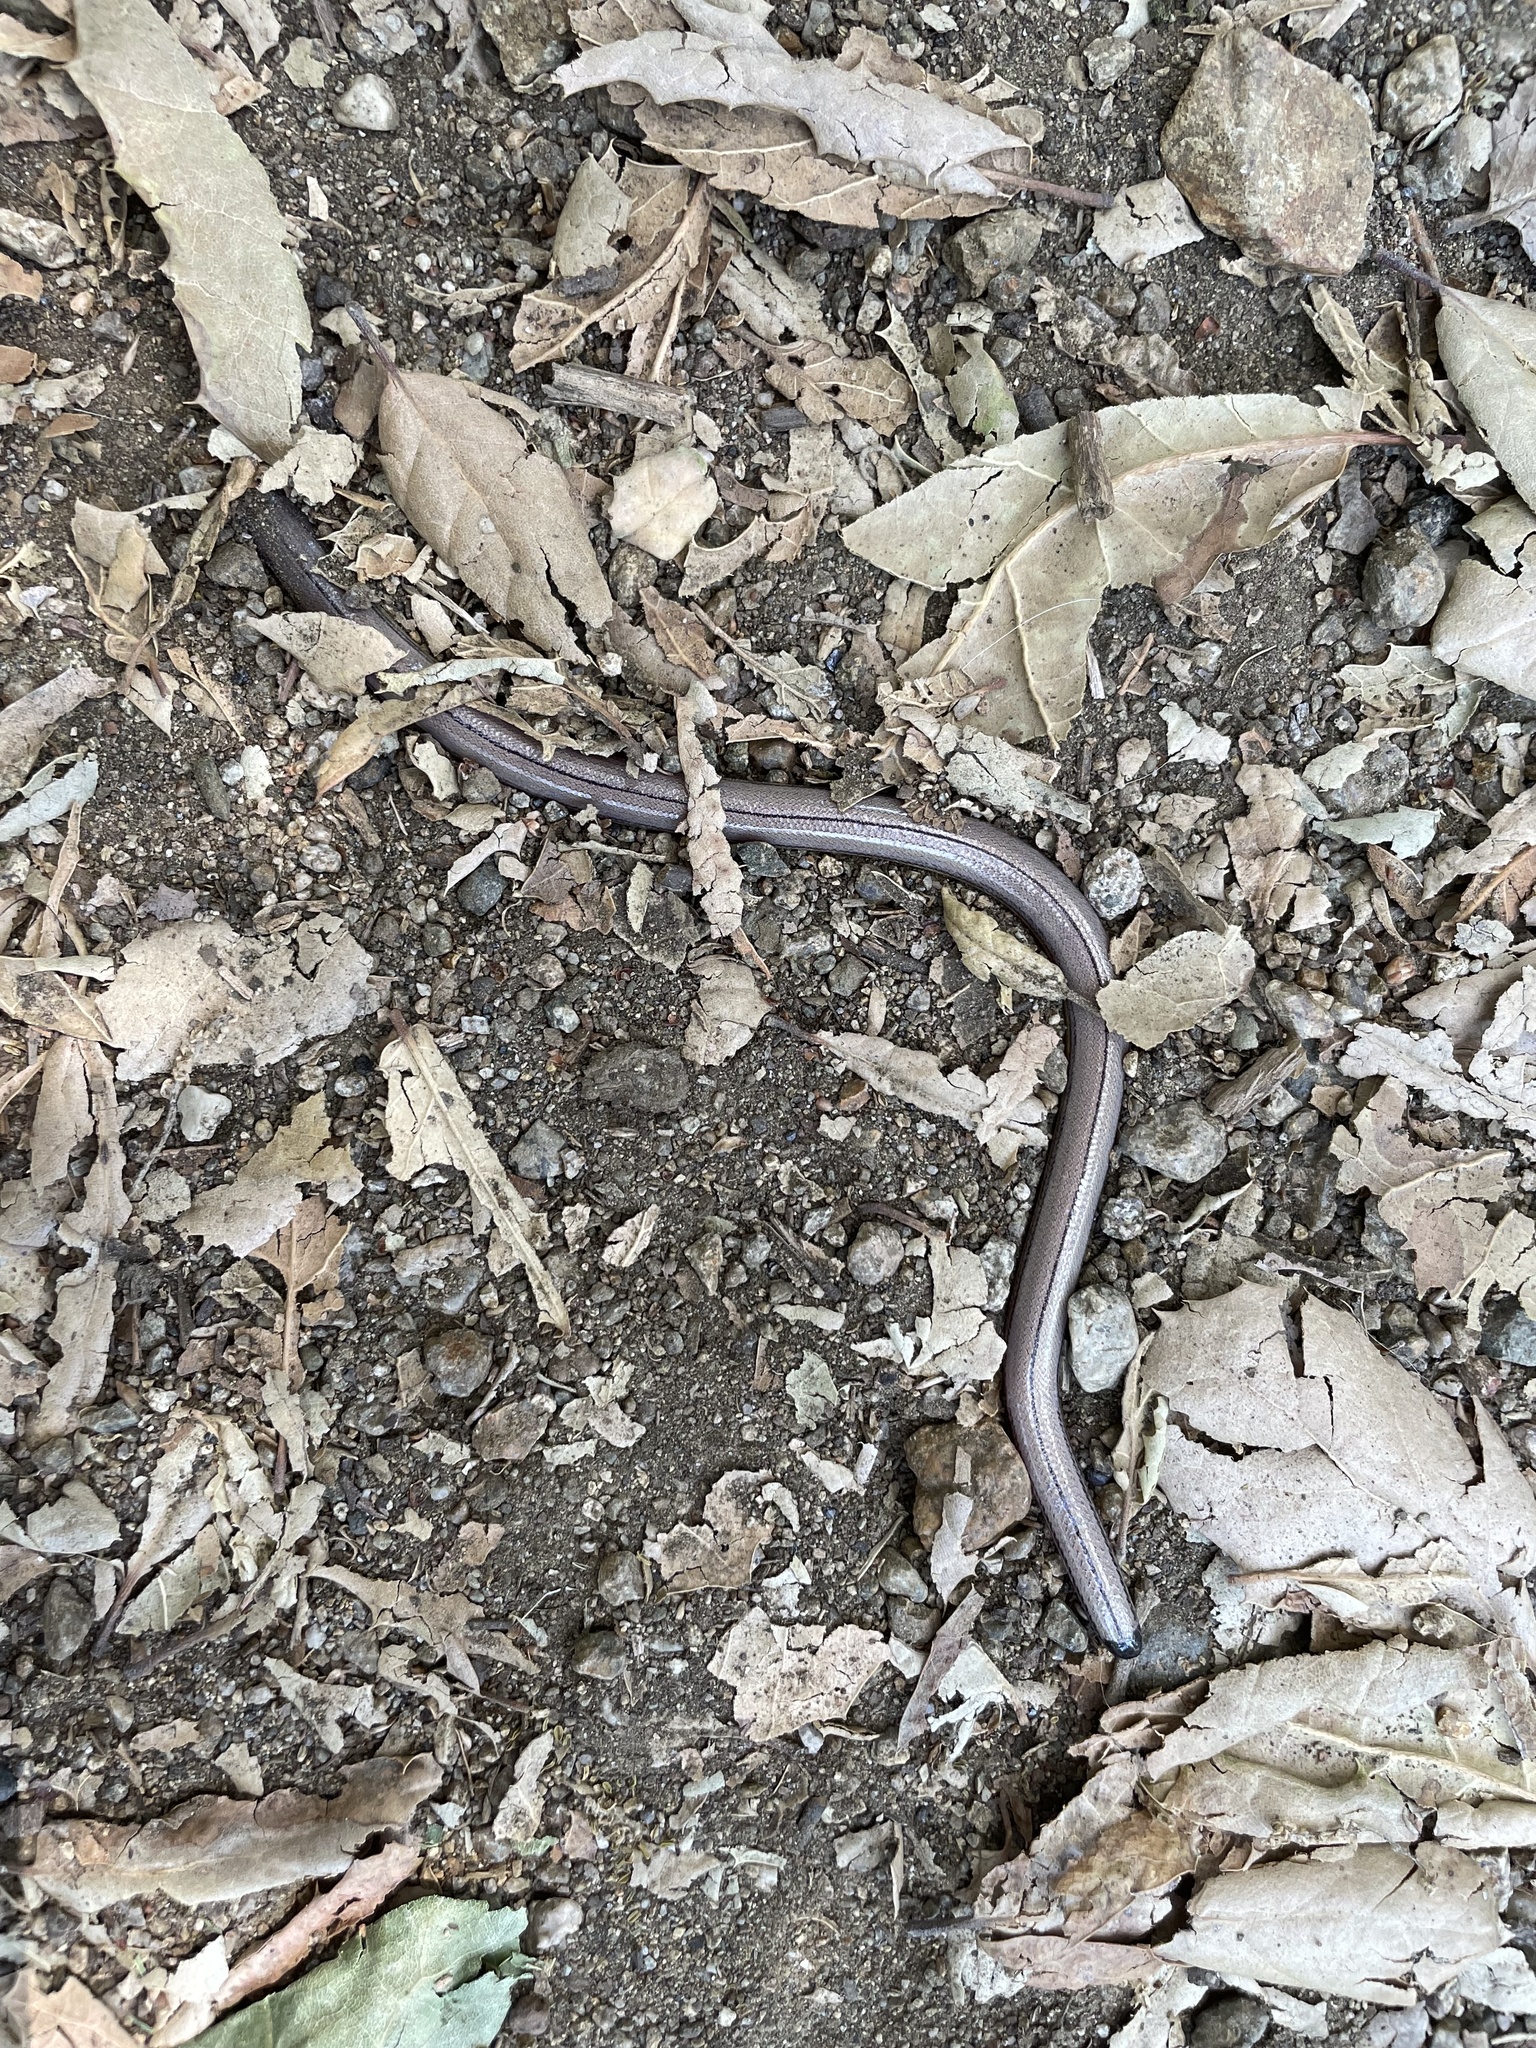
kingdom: Animalia
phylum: Chordata
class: Squamata
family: Anguidae
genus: Anniella
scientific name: Anniella stebbinsi
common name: Southern california legless lizard
